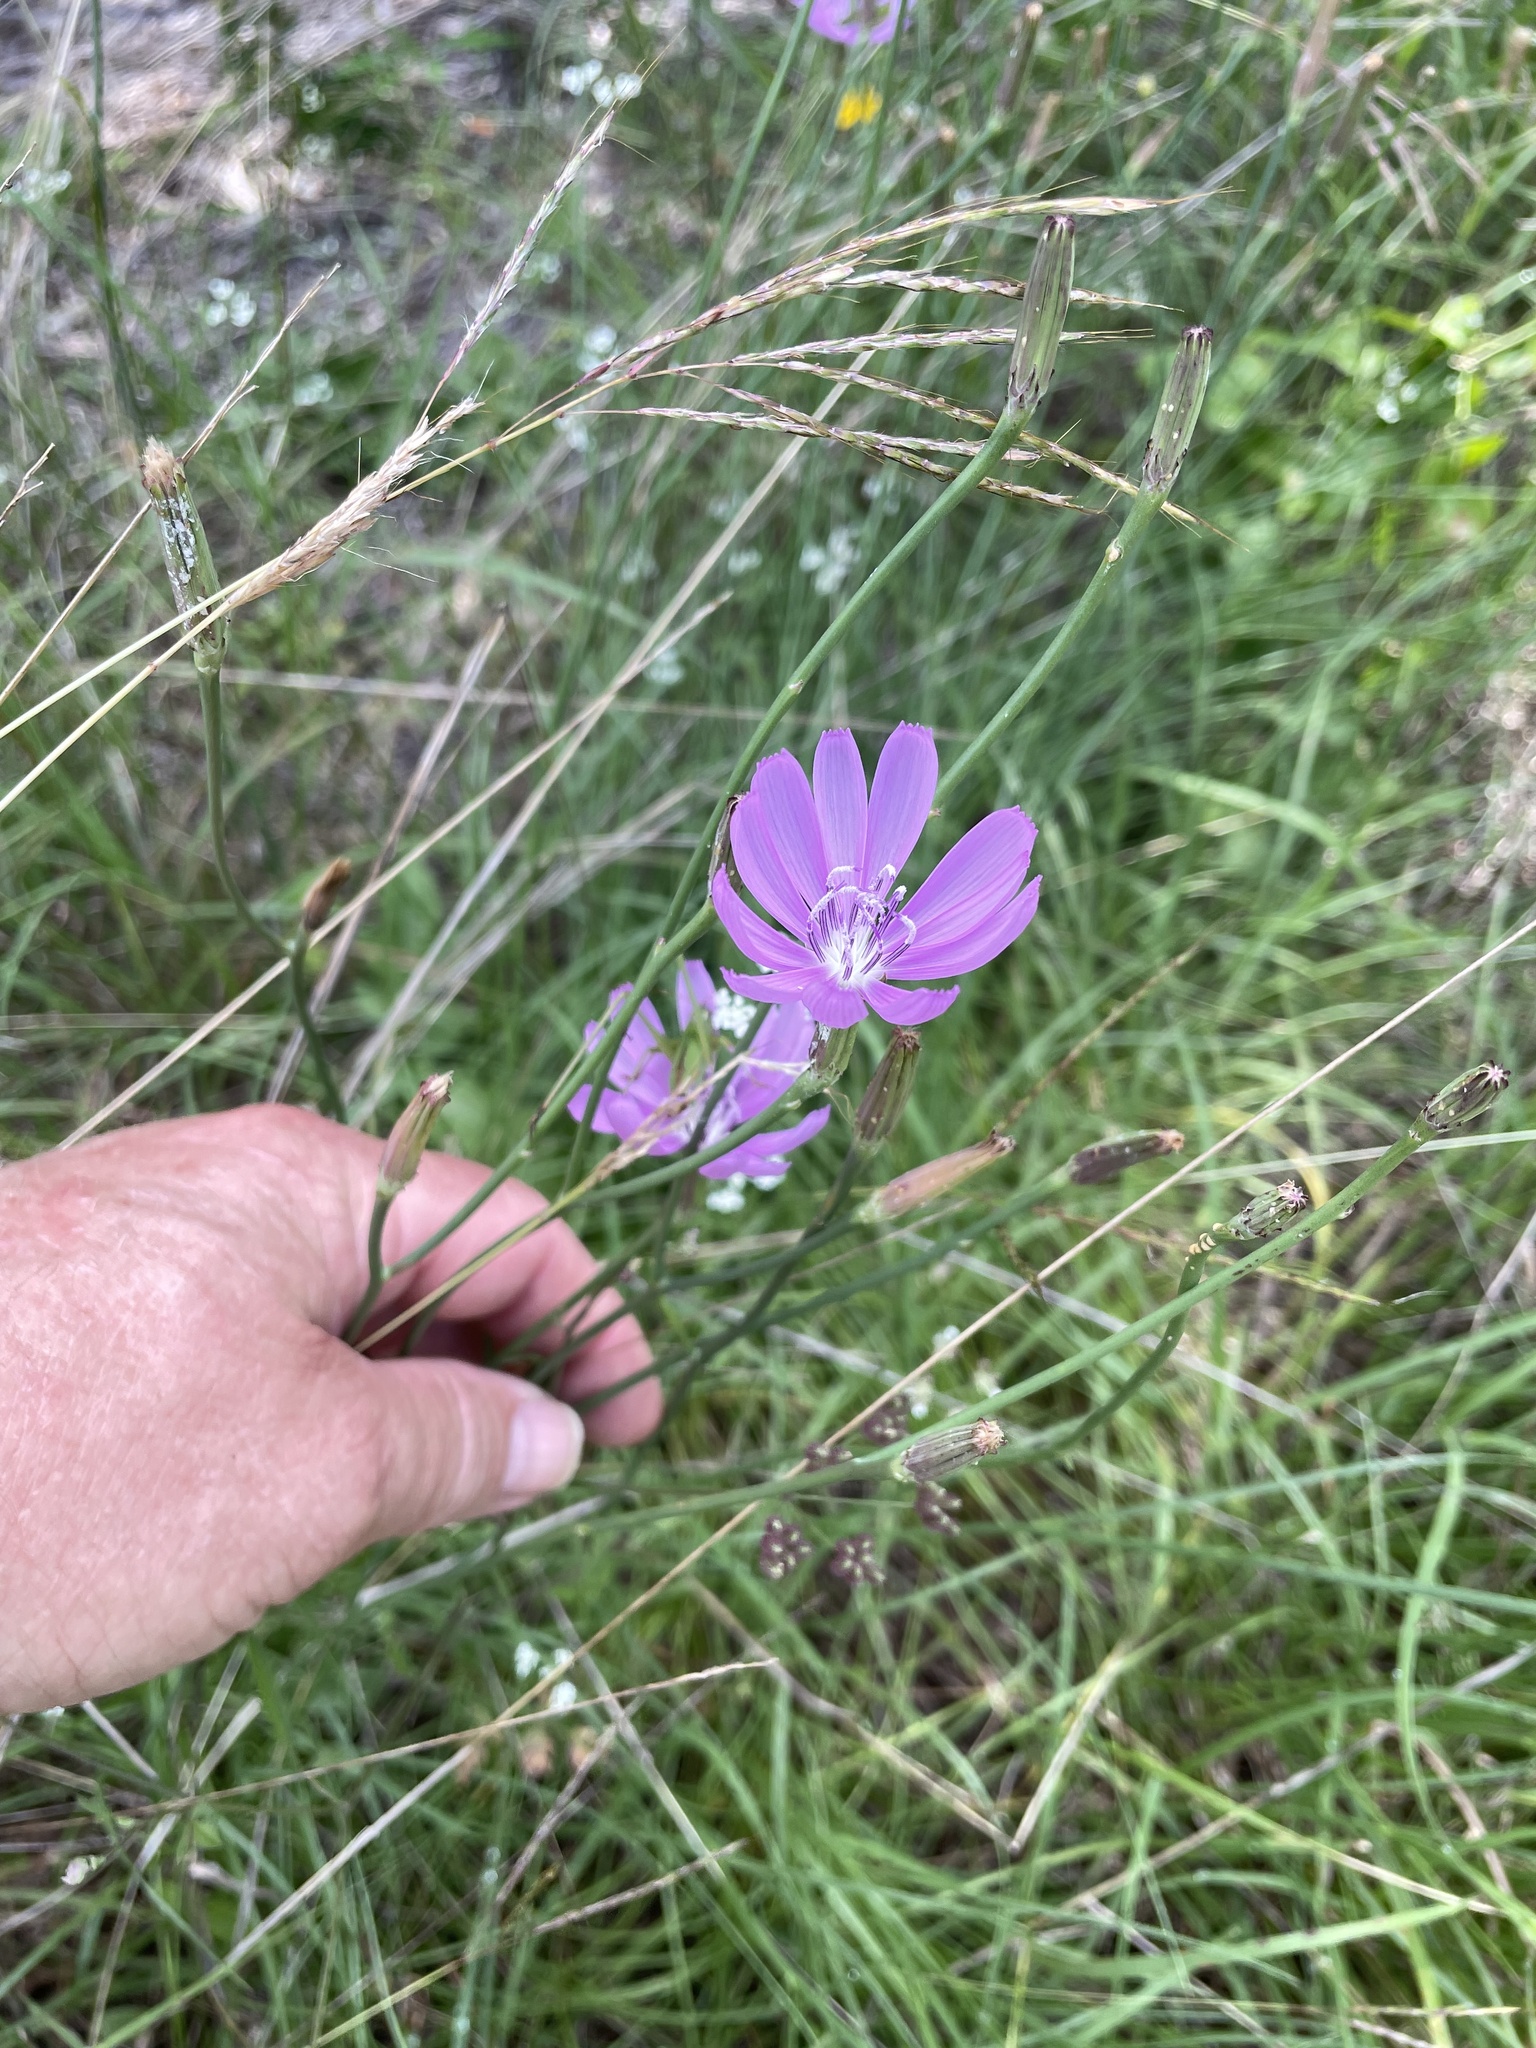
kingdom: Plantae
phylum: Tracheophyta
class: Magnoliopsida
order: Asterales
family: Asteraceae
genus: Lygodesmia
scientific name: Lygodesmia texana
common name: Texas skeleton-plant
